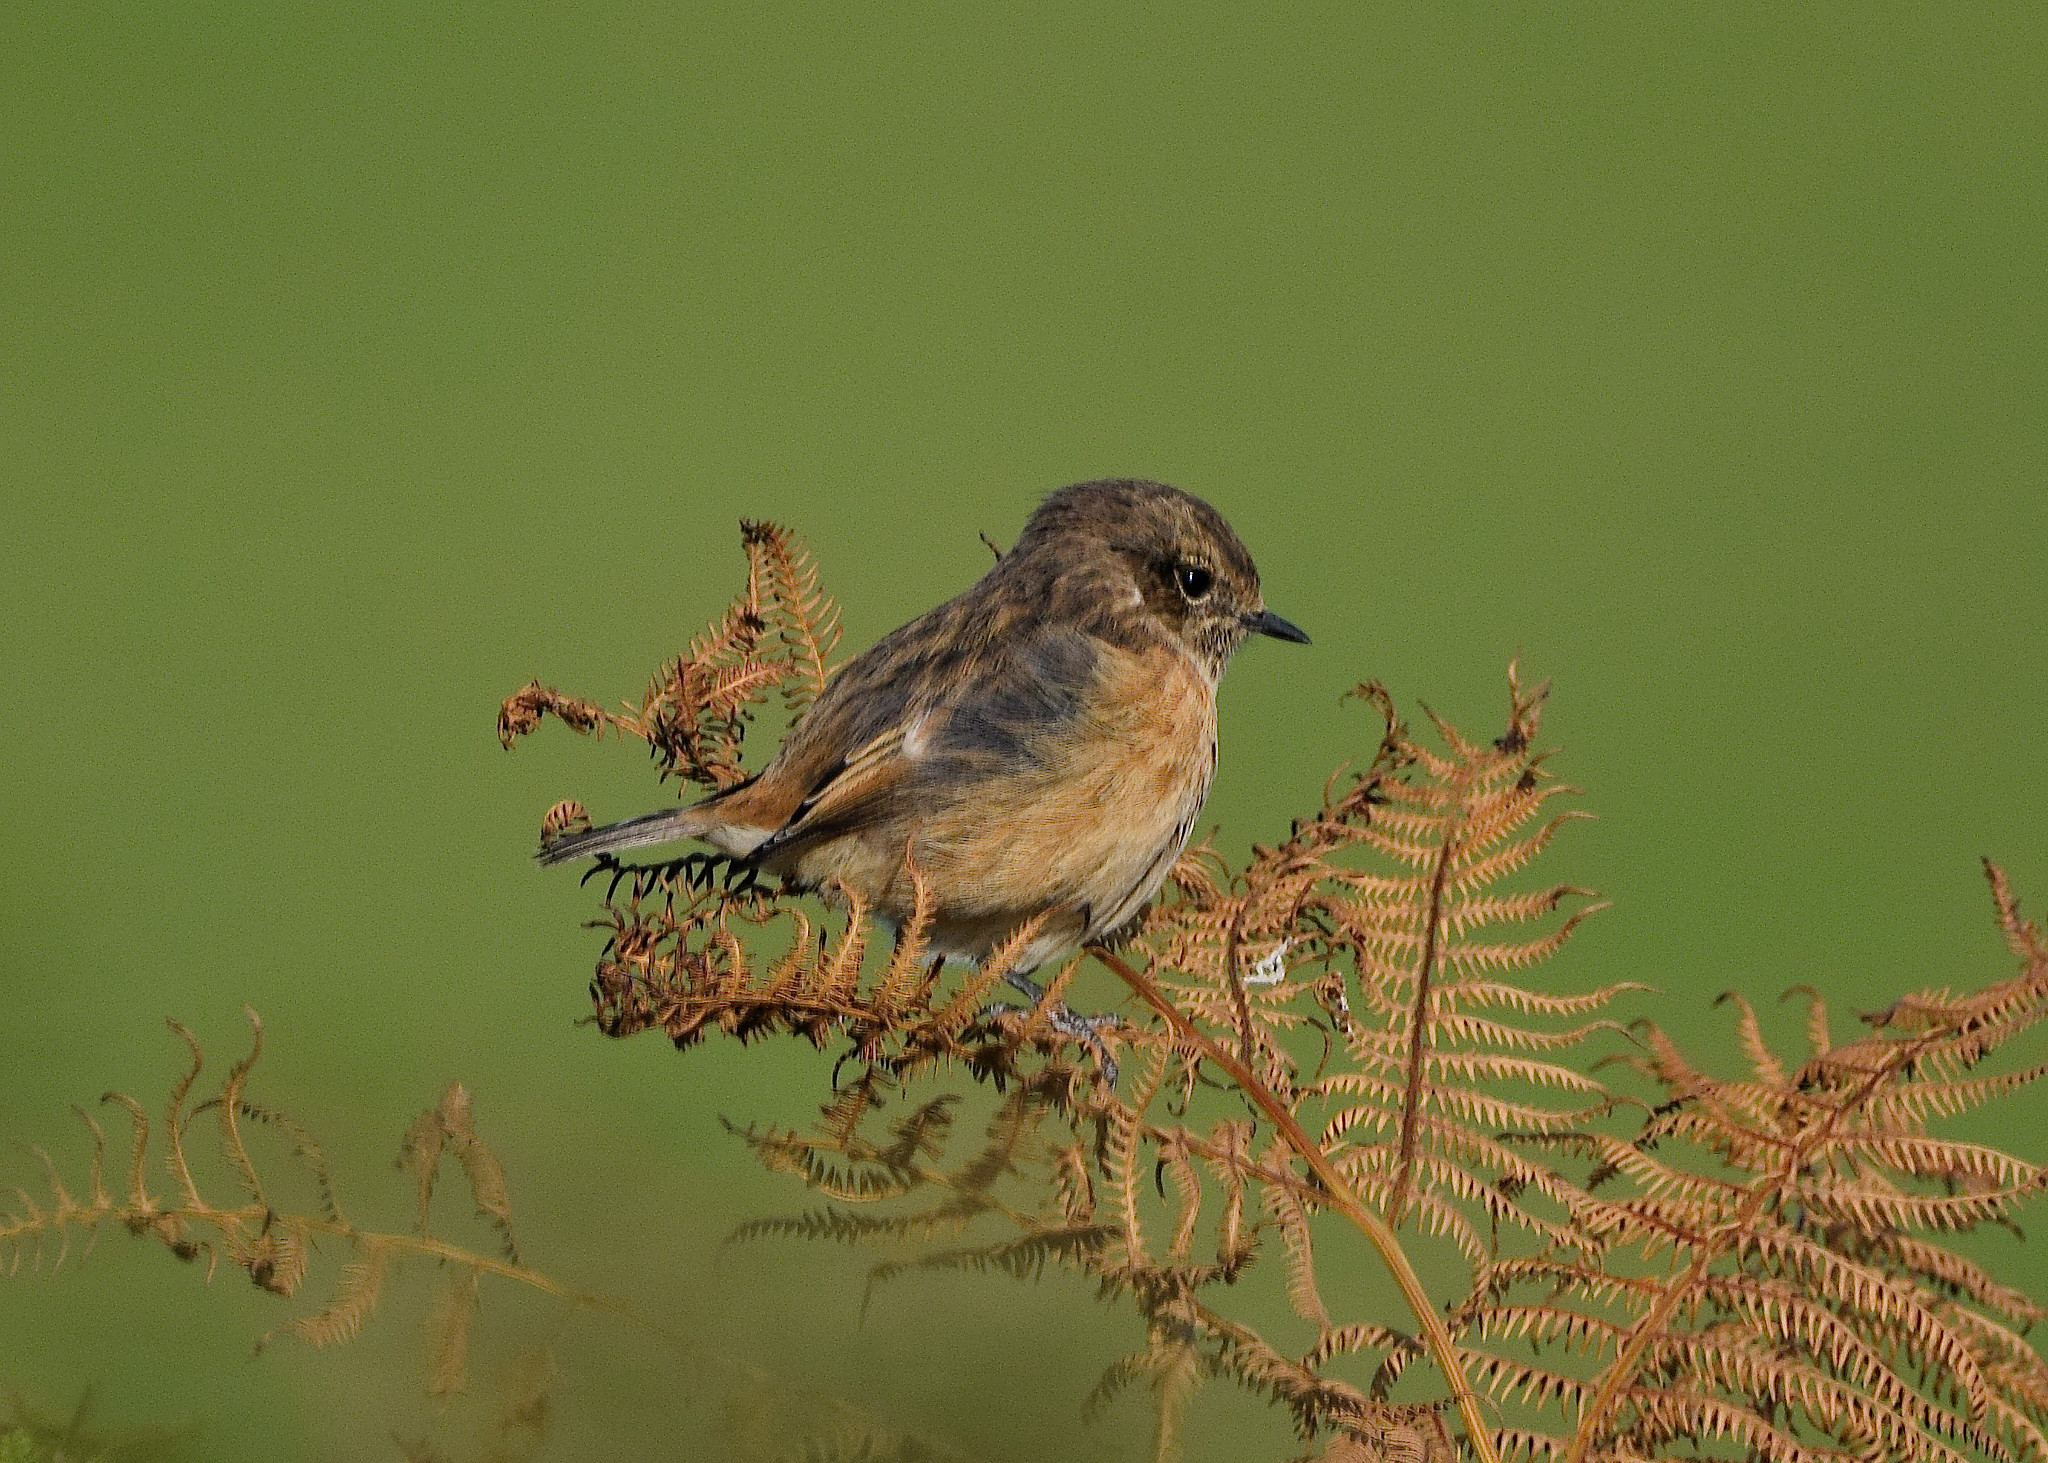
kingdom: Animalia
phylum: Chordata
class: Aves
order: Passeriformes
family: Muscicapidae
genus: Saxicola
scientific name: Saxicola rubicola
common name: European stonechat
